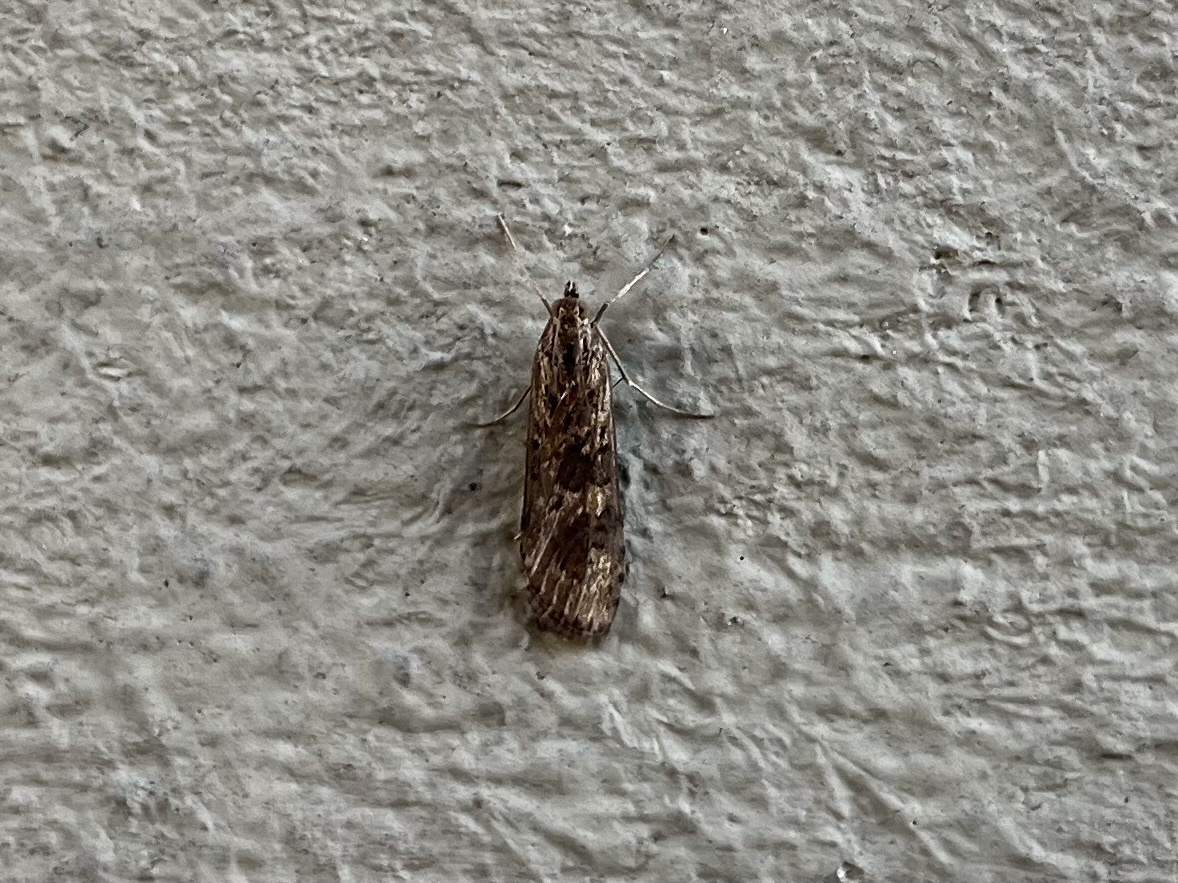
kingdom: Animalia
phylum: Arthropoda
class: Insecta
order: Lepidoptera
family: Crambidae
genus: Nomophila
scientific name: Nomophila noctuella
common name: Rush veneer
